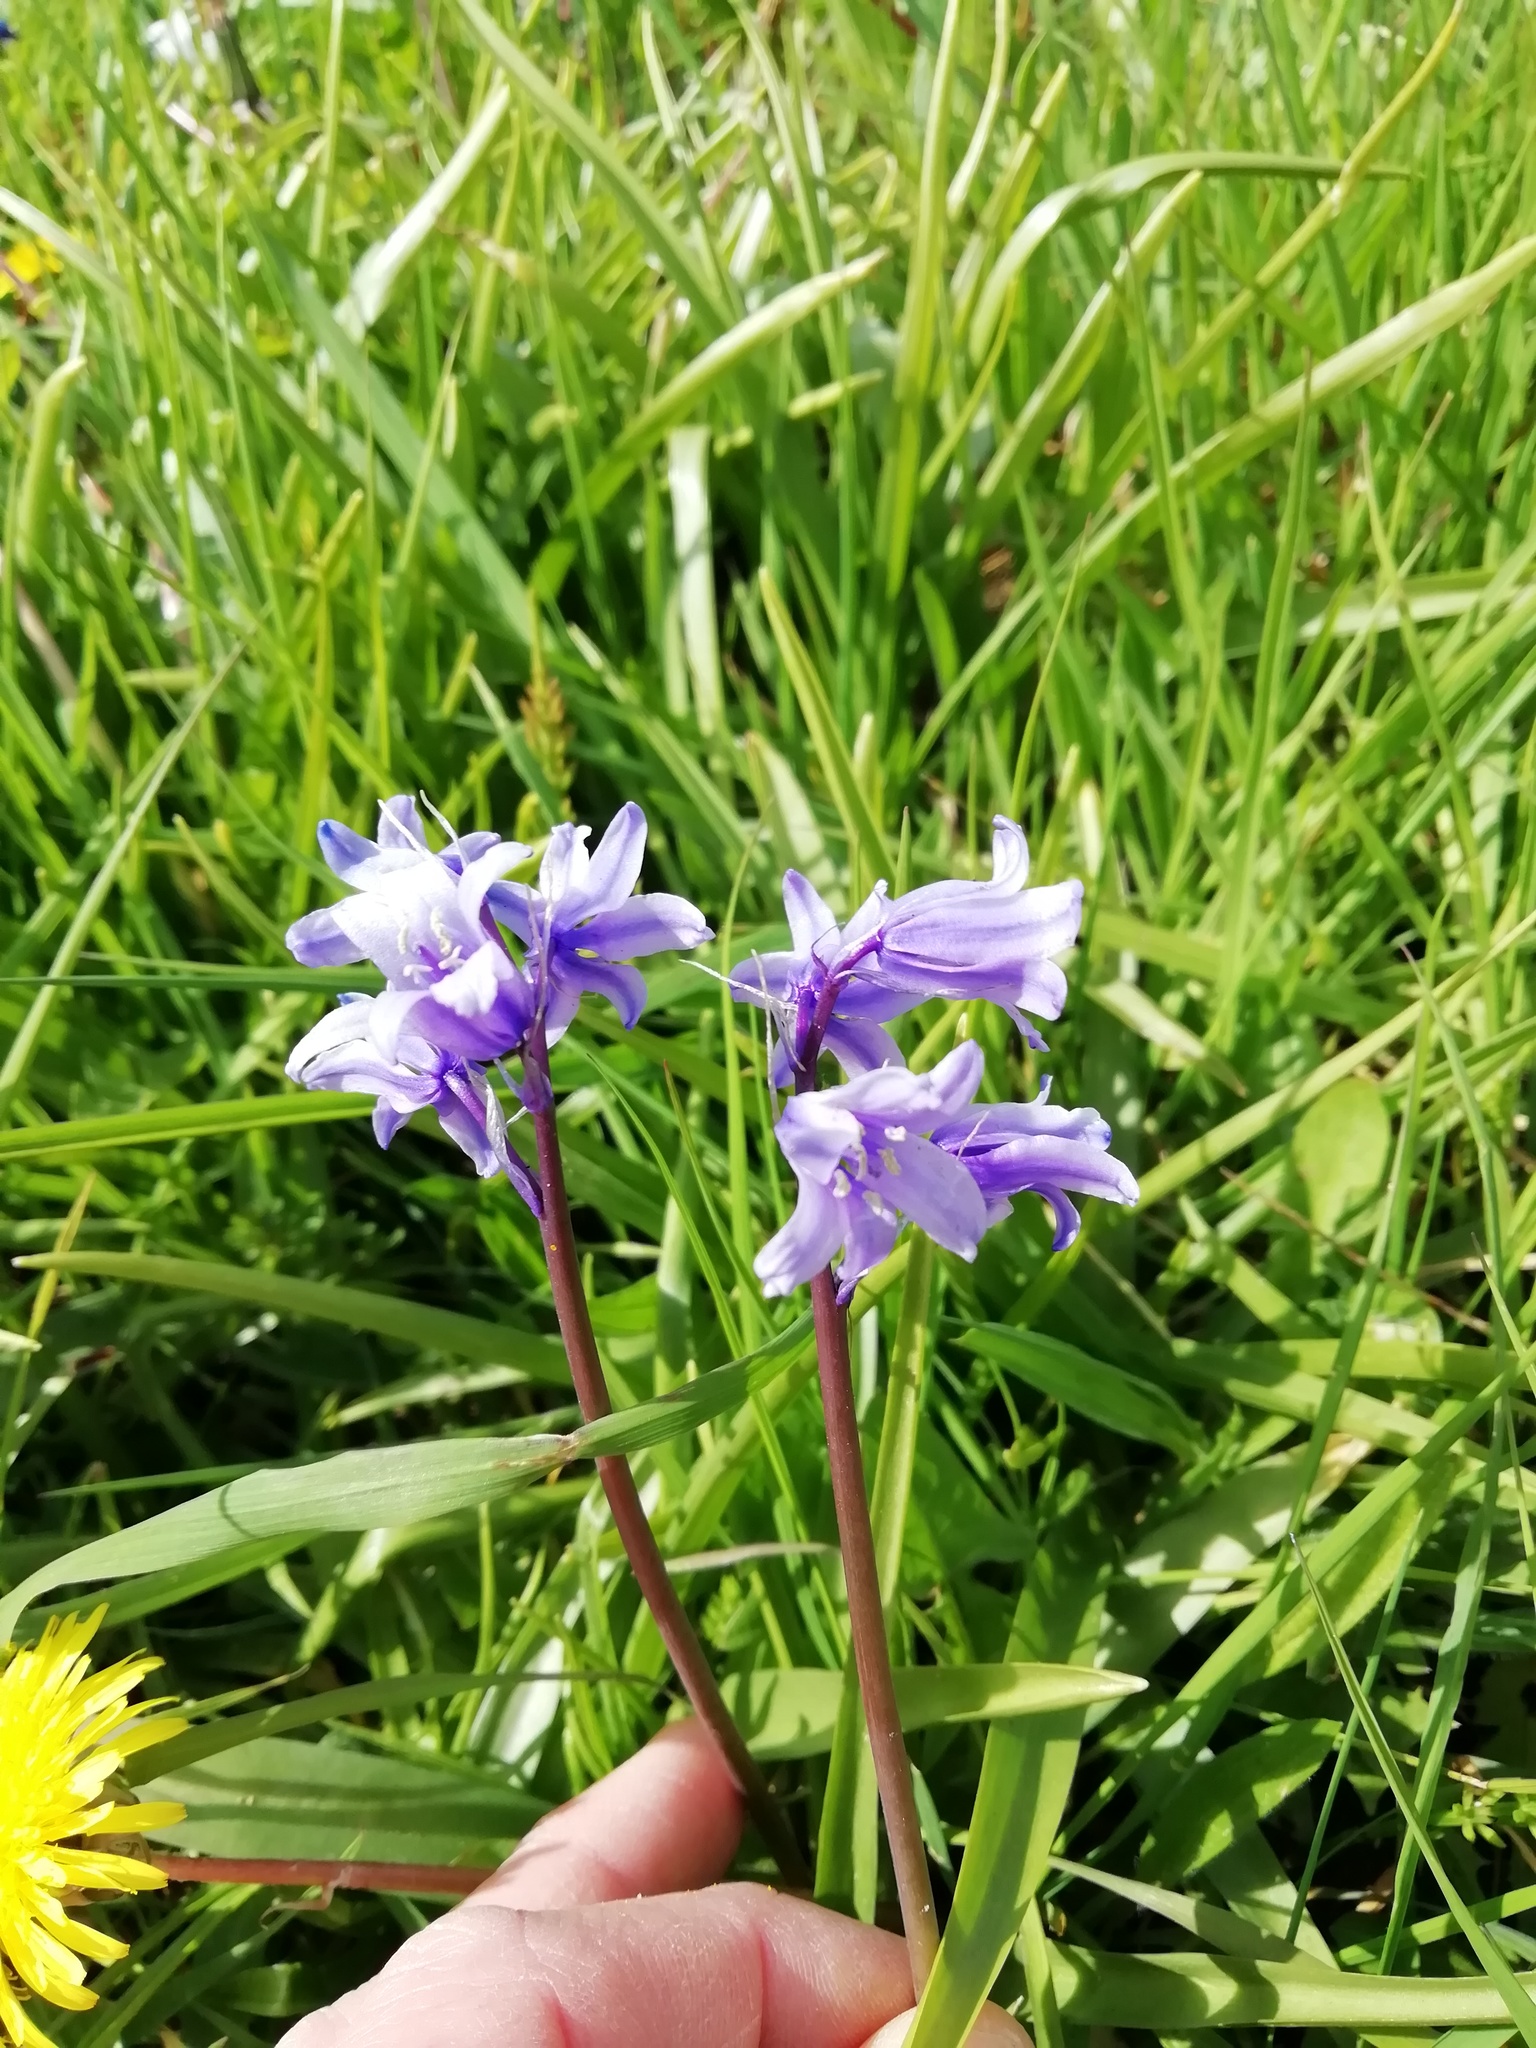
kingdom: Plantae
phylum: Tracheophyta
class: Liliopsida
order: Asparagales
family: Asparagaceae
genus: Hyacinthoides
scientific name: Hyacinthoides massartiana
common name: Hyacinthoides
